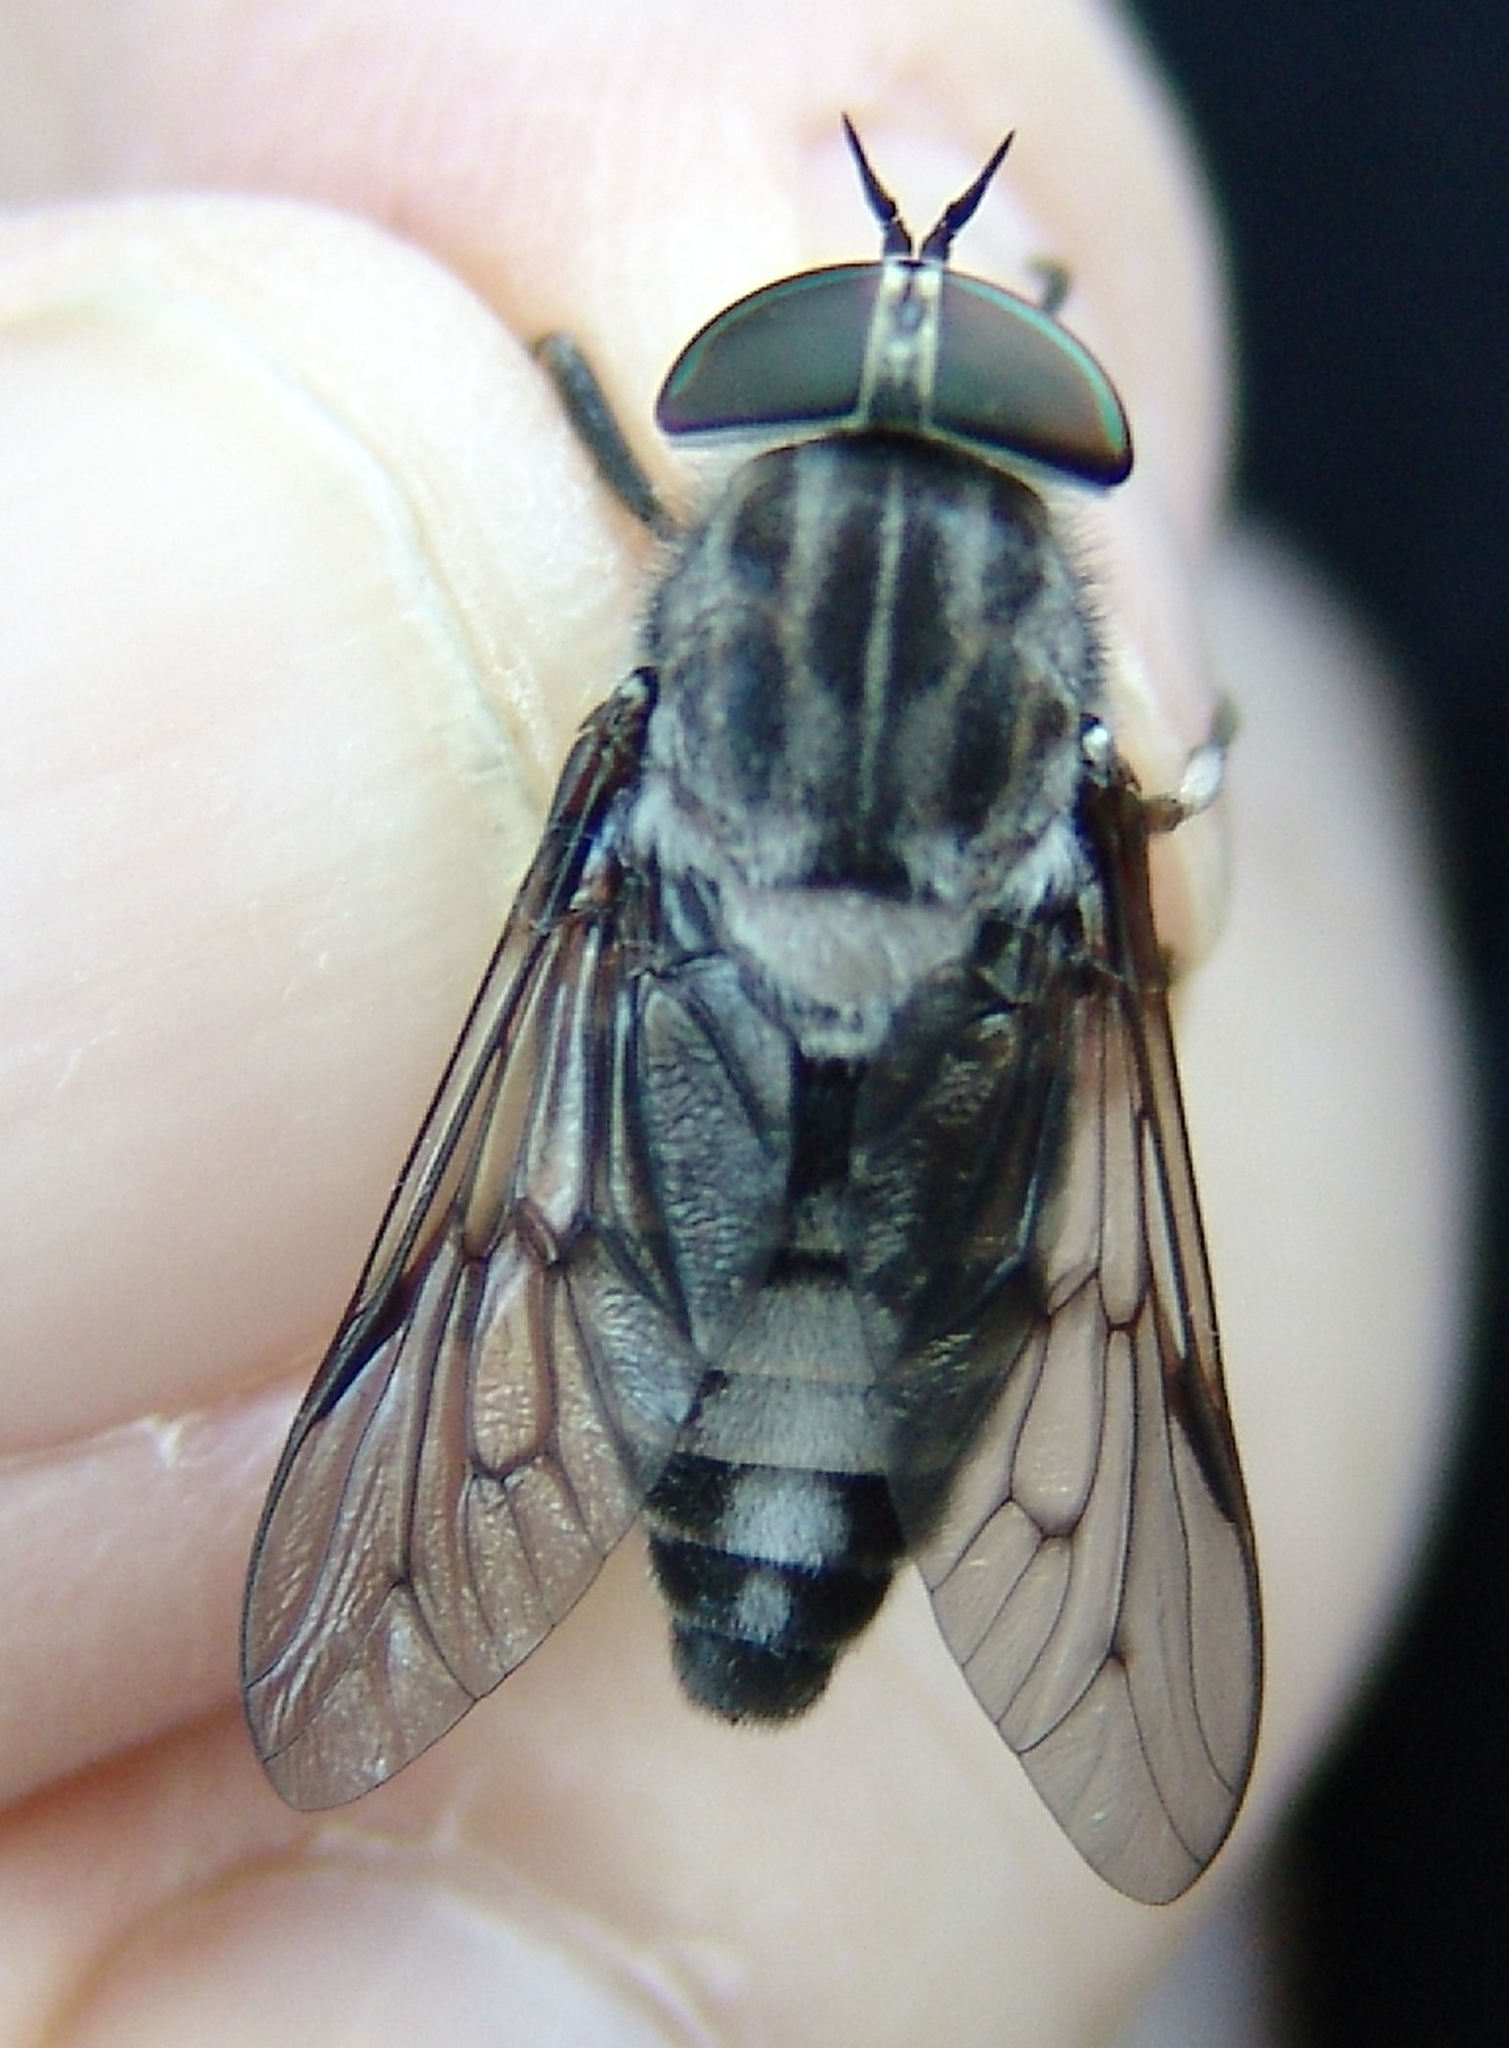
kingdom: Animalia
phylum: Arthropoda
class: Insecta
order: Diptera
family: Tabanidae
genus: Tabanus
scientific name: Tabanus moderator
